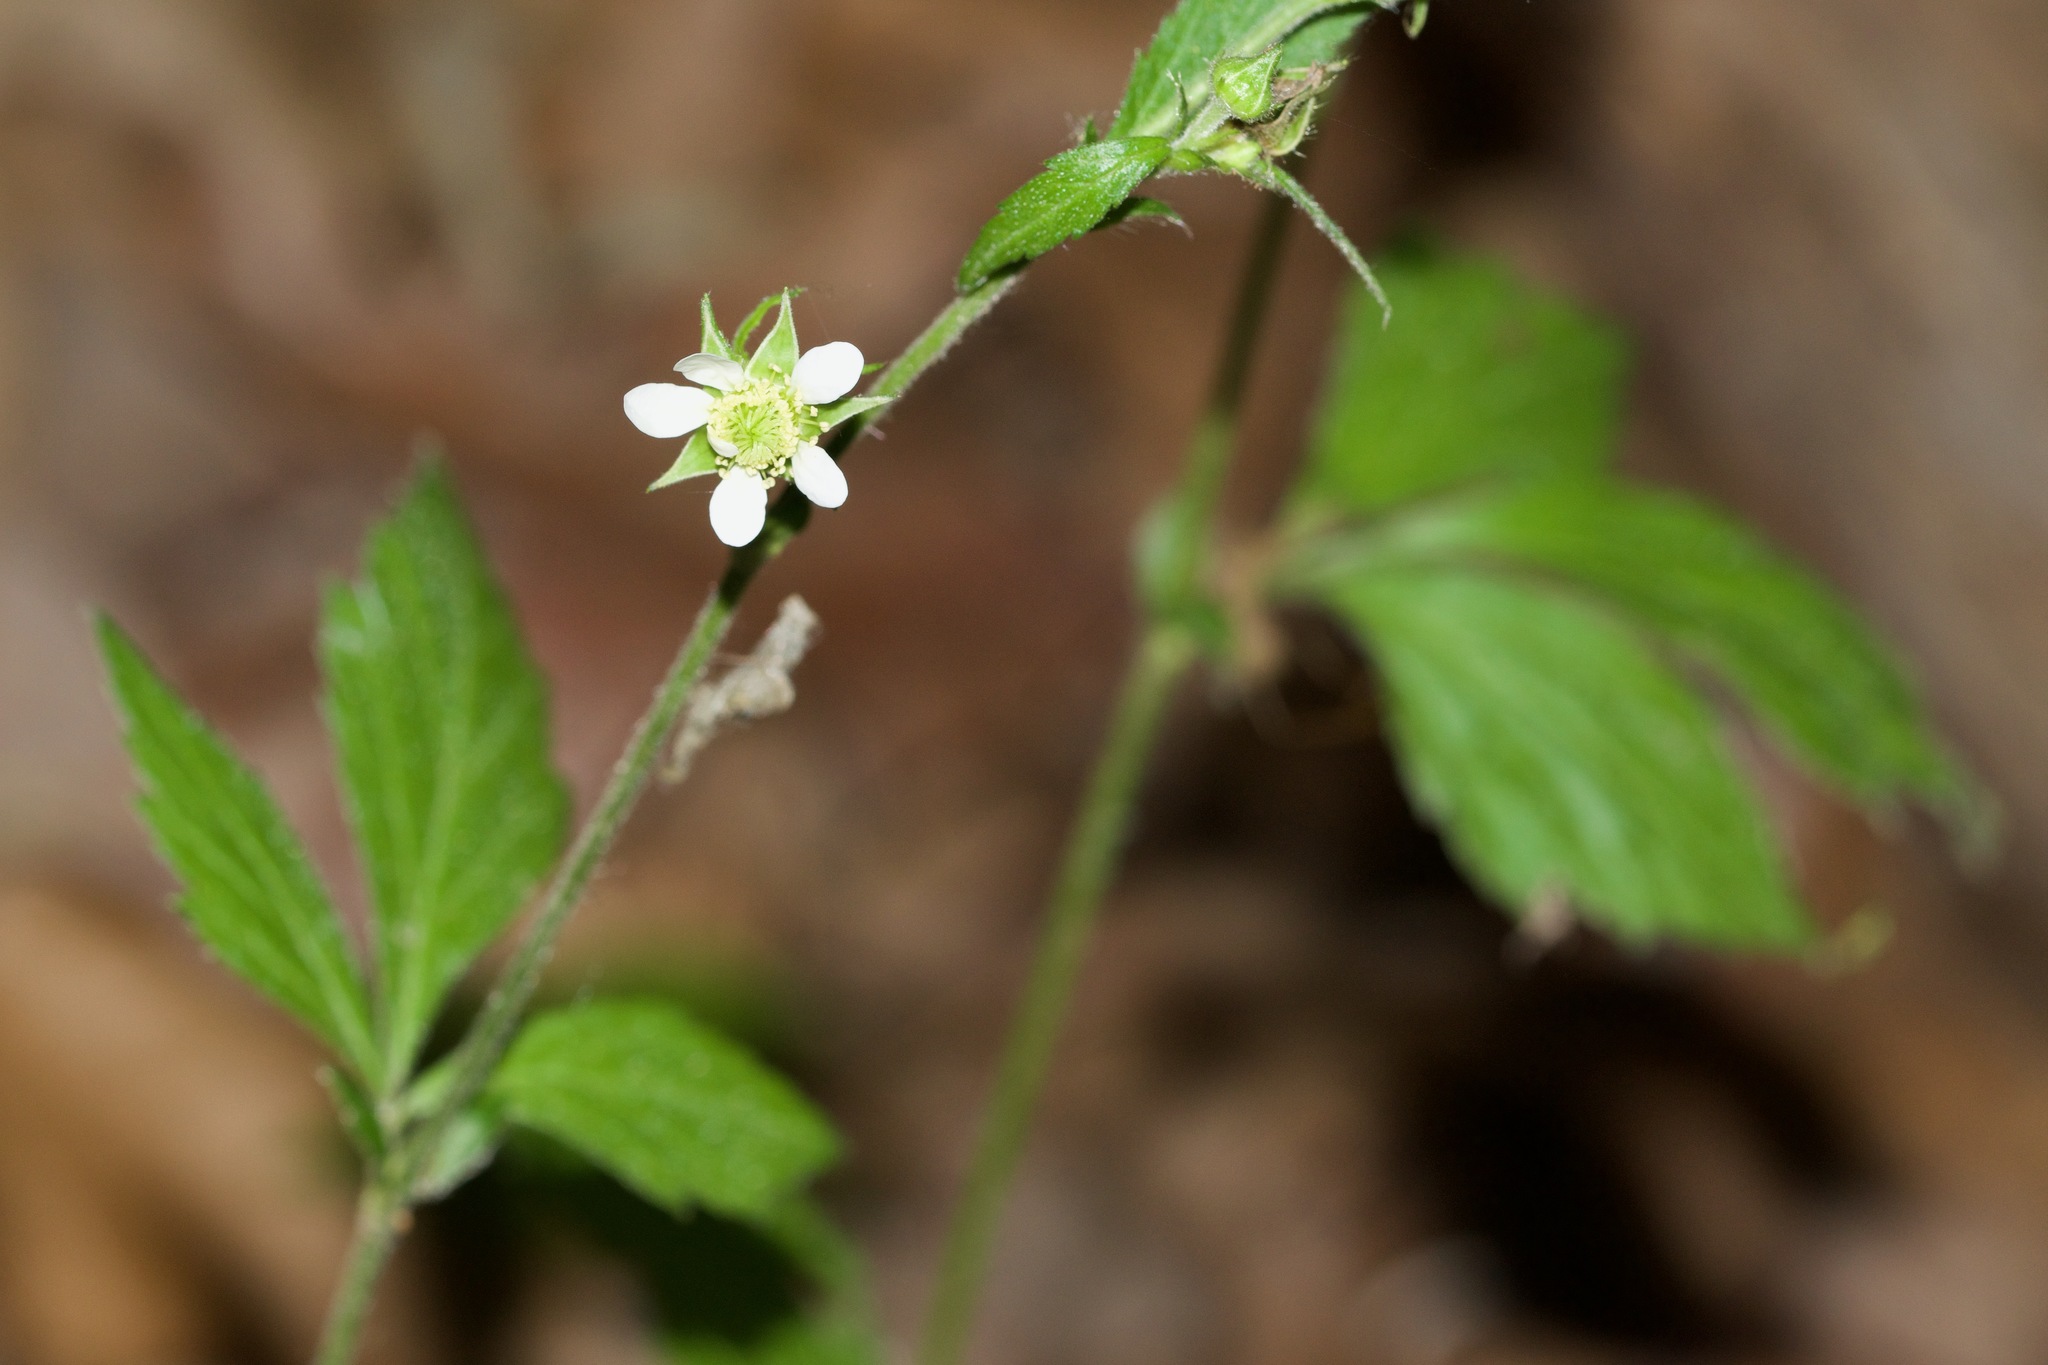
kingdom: Plantae
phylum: Tracheophyta
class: Magnoliopsida
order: Rosales
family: Rosaceae
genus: Geum
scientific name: Geum canadense
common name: White avens
